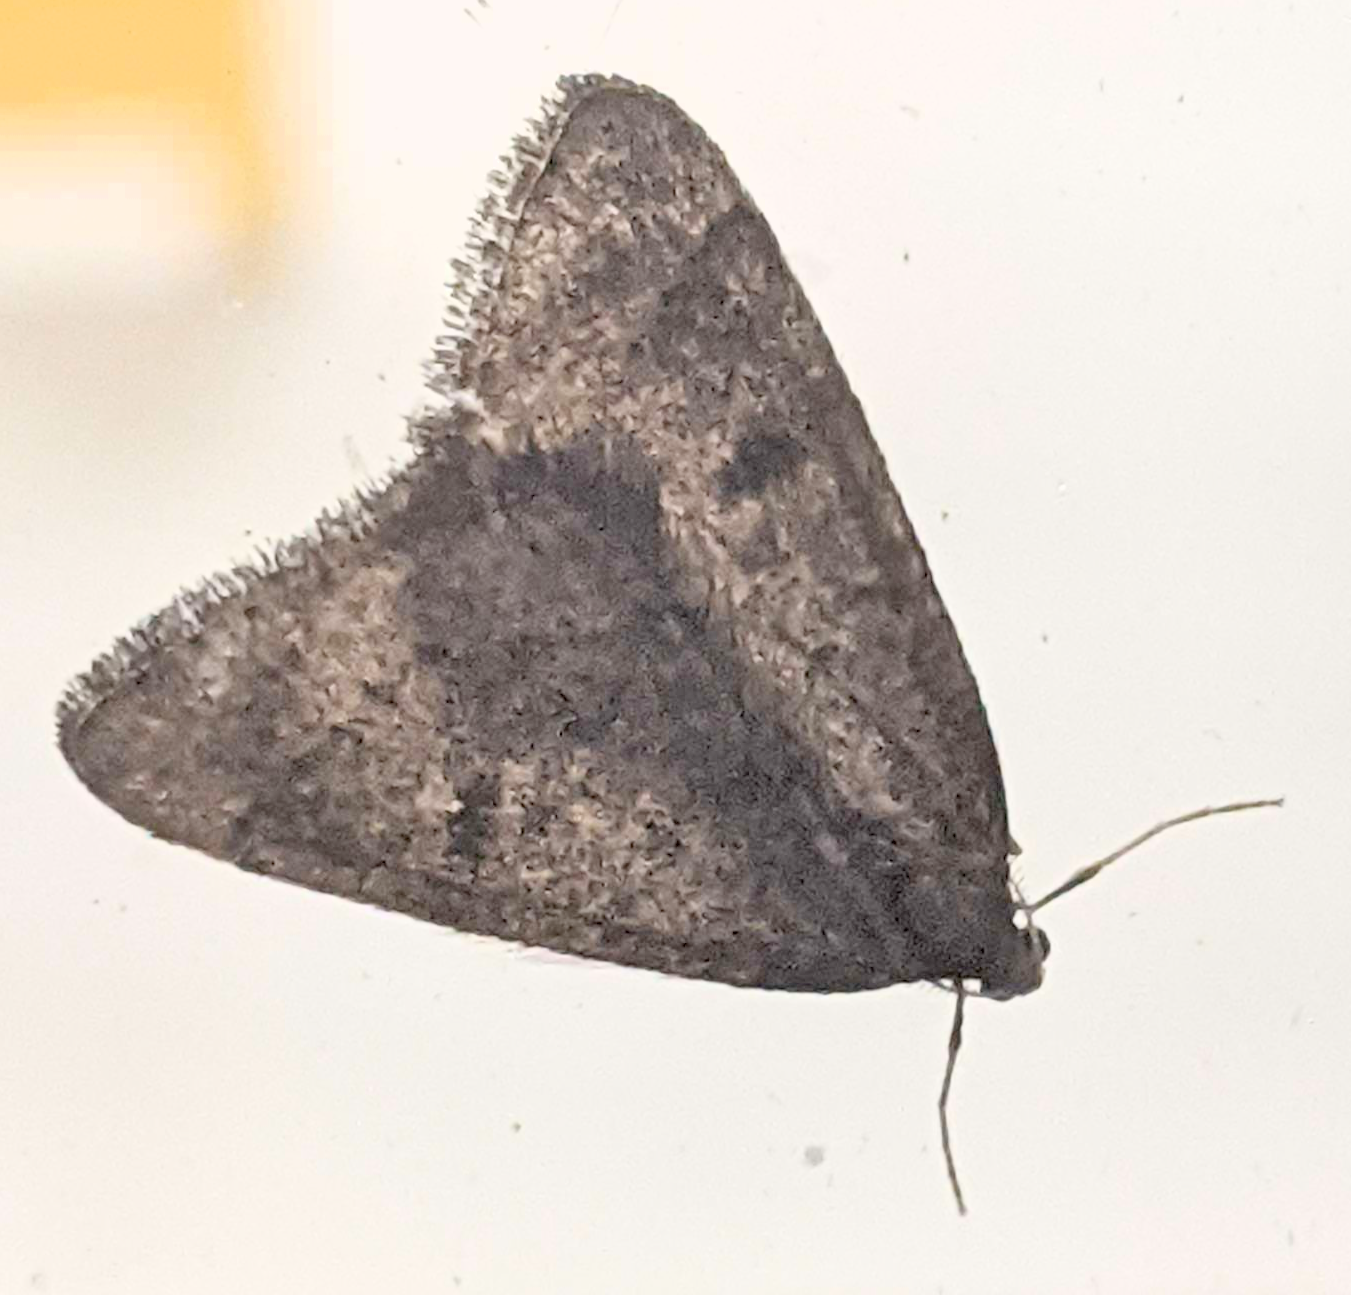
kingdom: Animalia
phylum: Arthropoda
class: Insecta
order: Lepidoptera
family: Geometridae
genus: Theria
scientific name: Theria primaria
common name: Early moth
